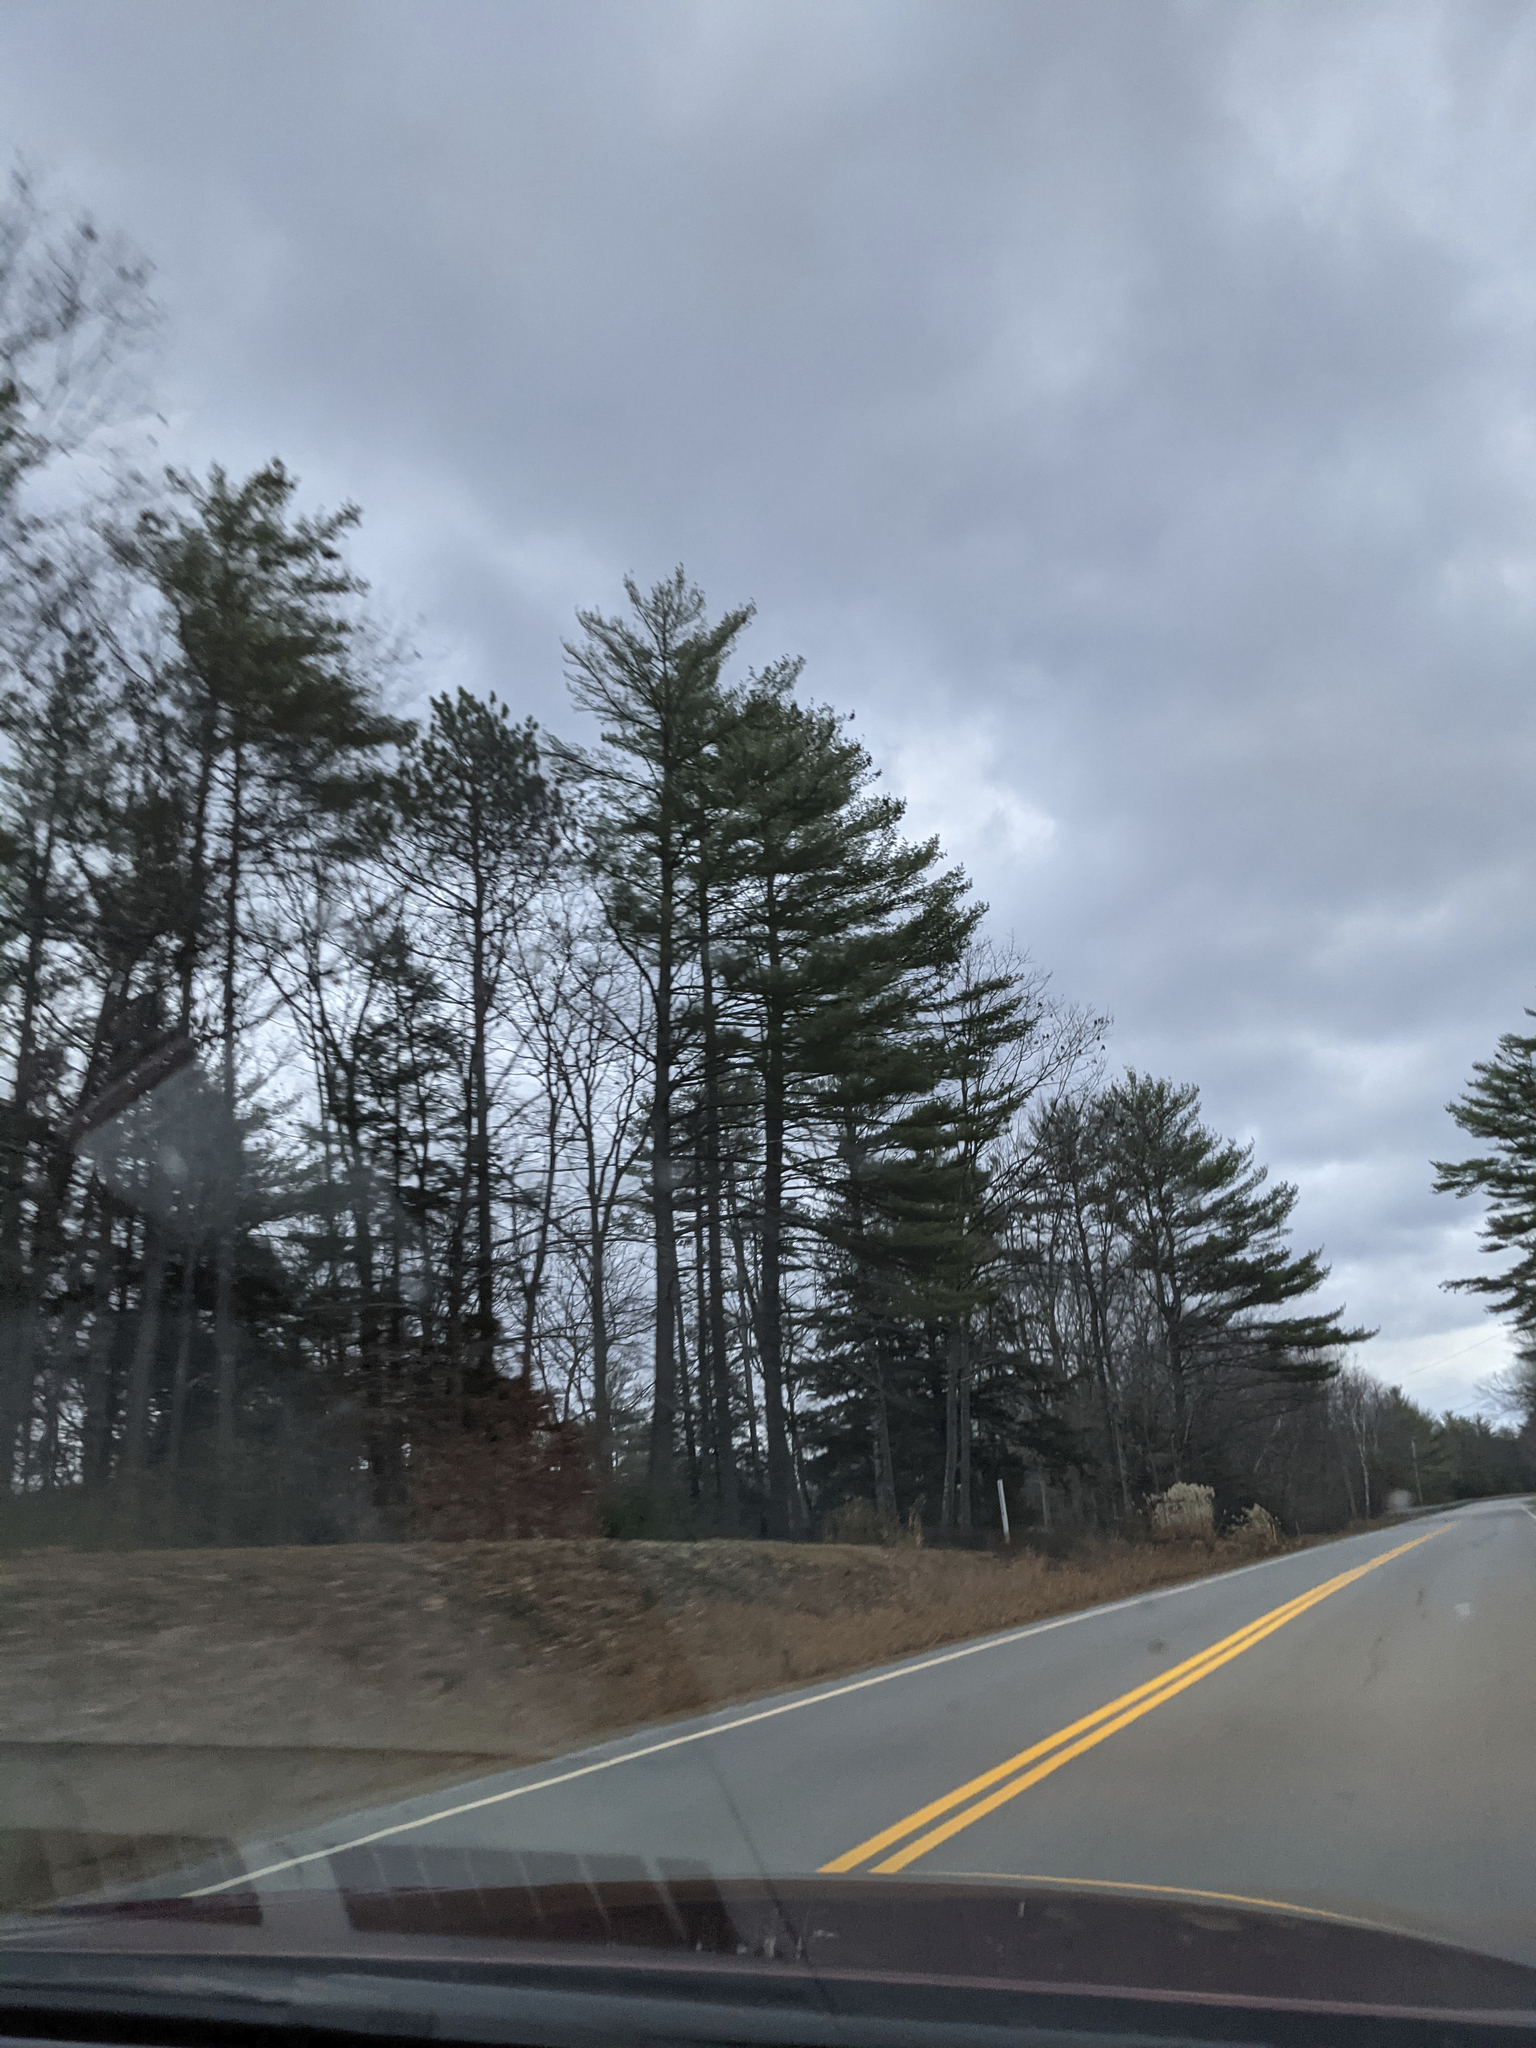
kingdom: Plantae
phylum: Tracheophyta
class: Pinopsida
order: Pinales
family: Pinaceae
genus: Pinus
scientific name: Pinus strobus
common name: Weymouth pine
